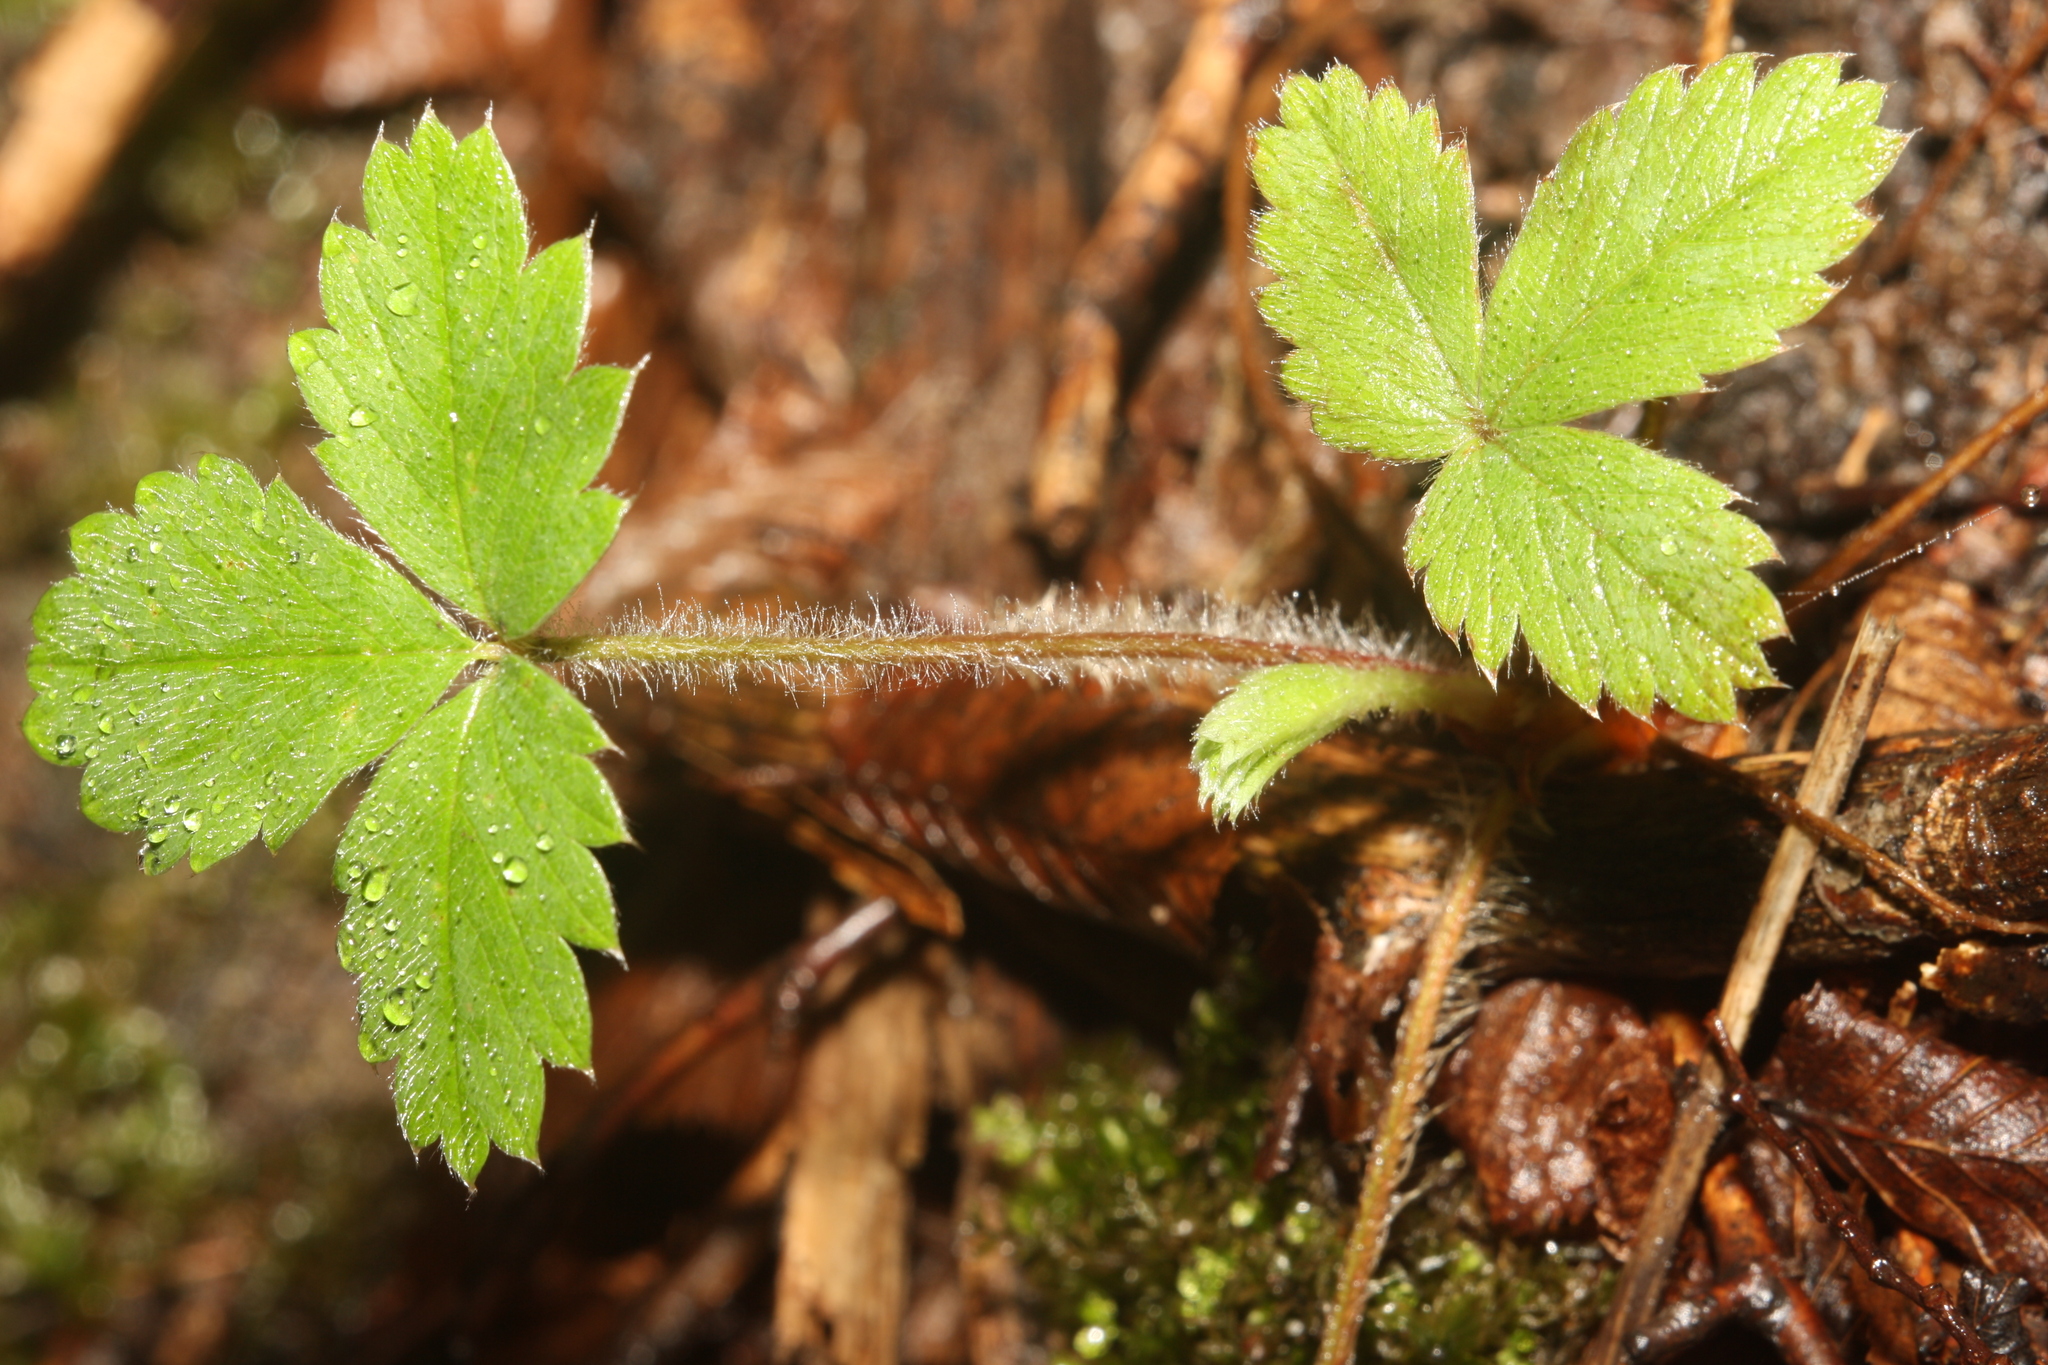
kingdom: Plantae
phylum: Tracheophyta
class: Magnoliopsida
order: Rosales
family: Rosaceae
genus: Fragaria
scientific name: Fragaria vesca
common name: Wild strawberry
